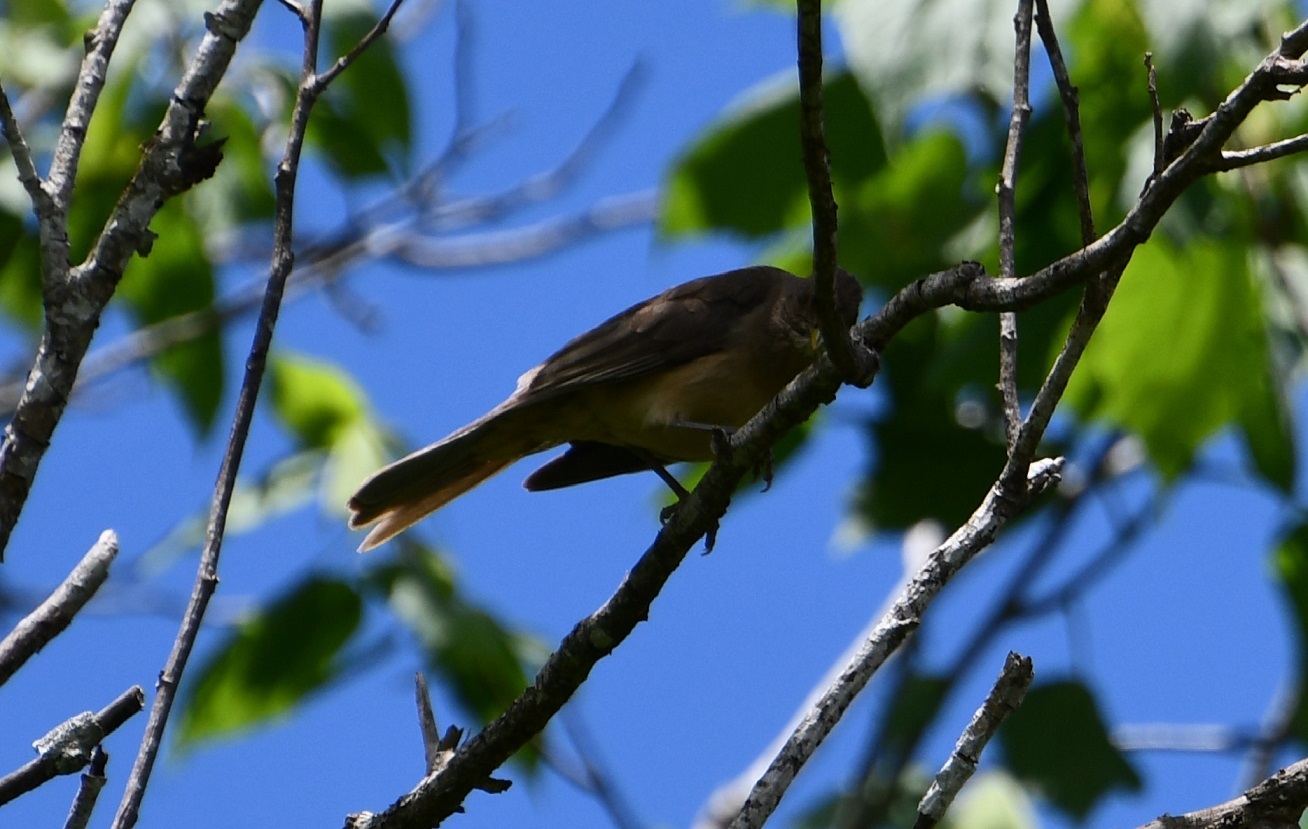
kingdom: Animalia
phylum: Chordata
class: Aves
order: Passeriformes
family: Turdidae
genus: Turdus
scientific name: Turdus grayi
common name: Clay-colored thrush
